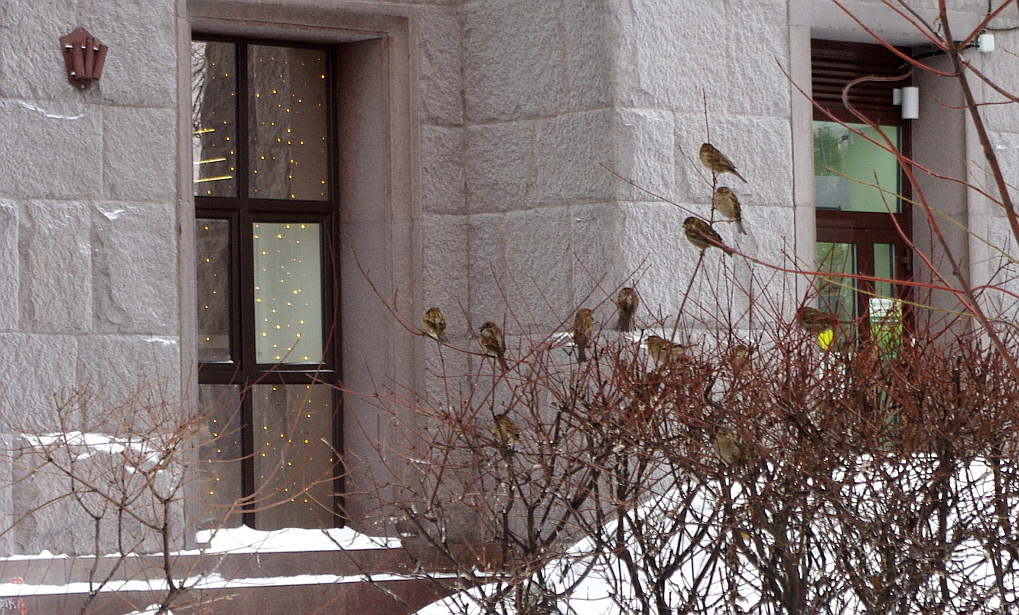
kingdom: Animalia
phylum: Chordata
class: Aves
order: Passeriformes
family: Passeridae
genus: Passer
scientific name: Passer domesticus
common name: House sparrow
